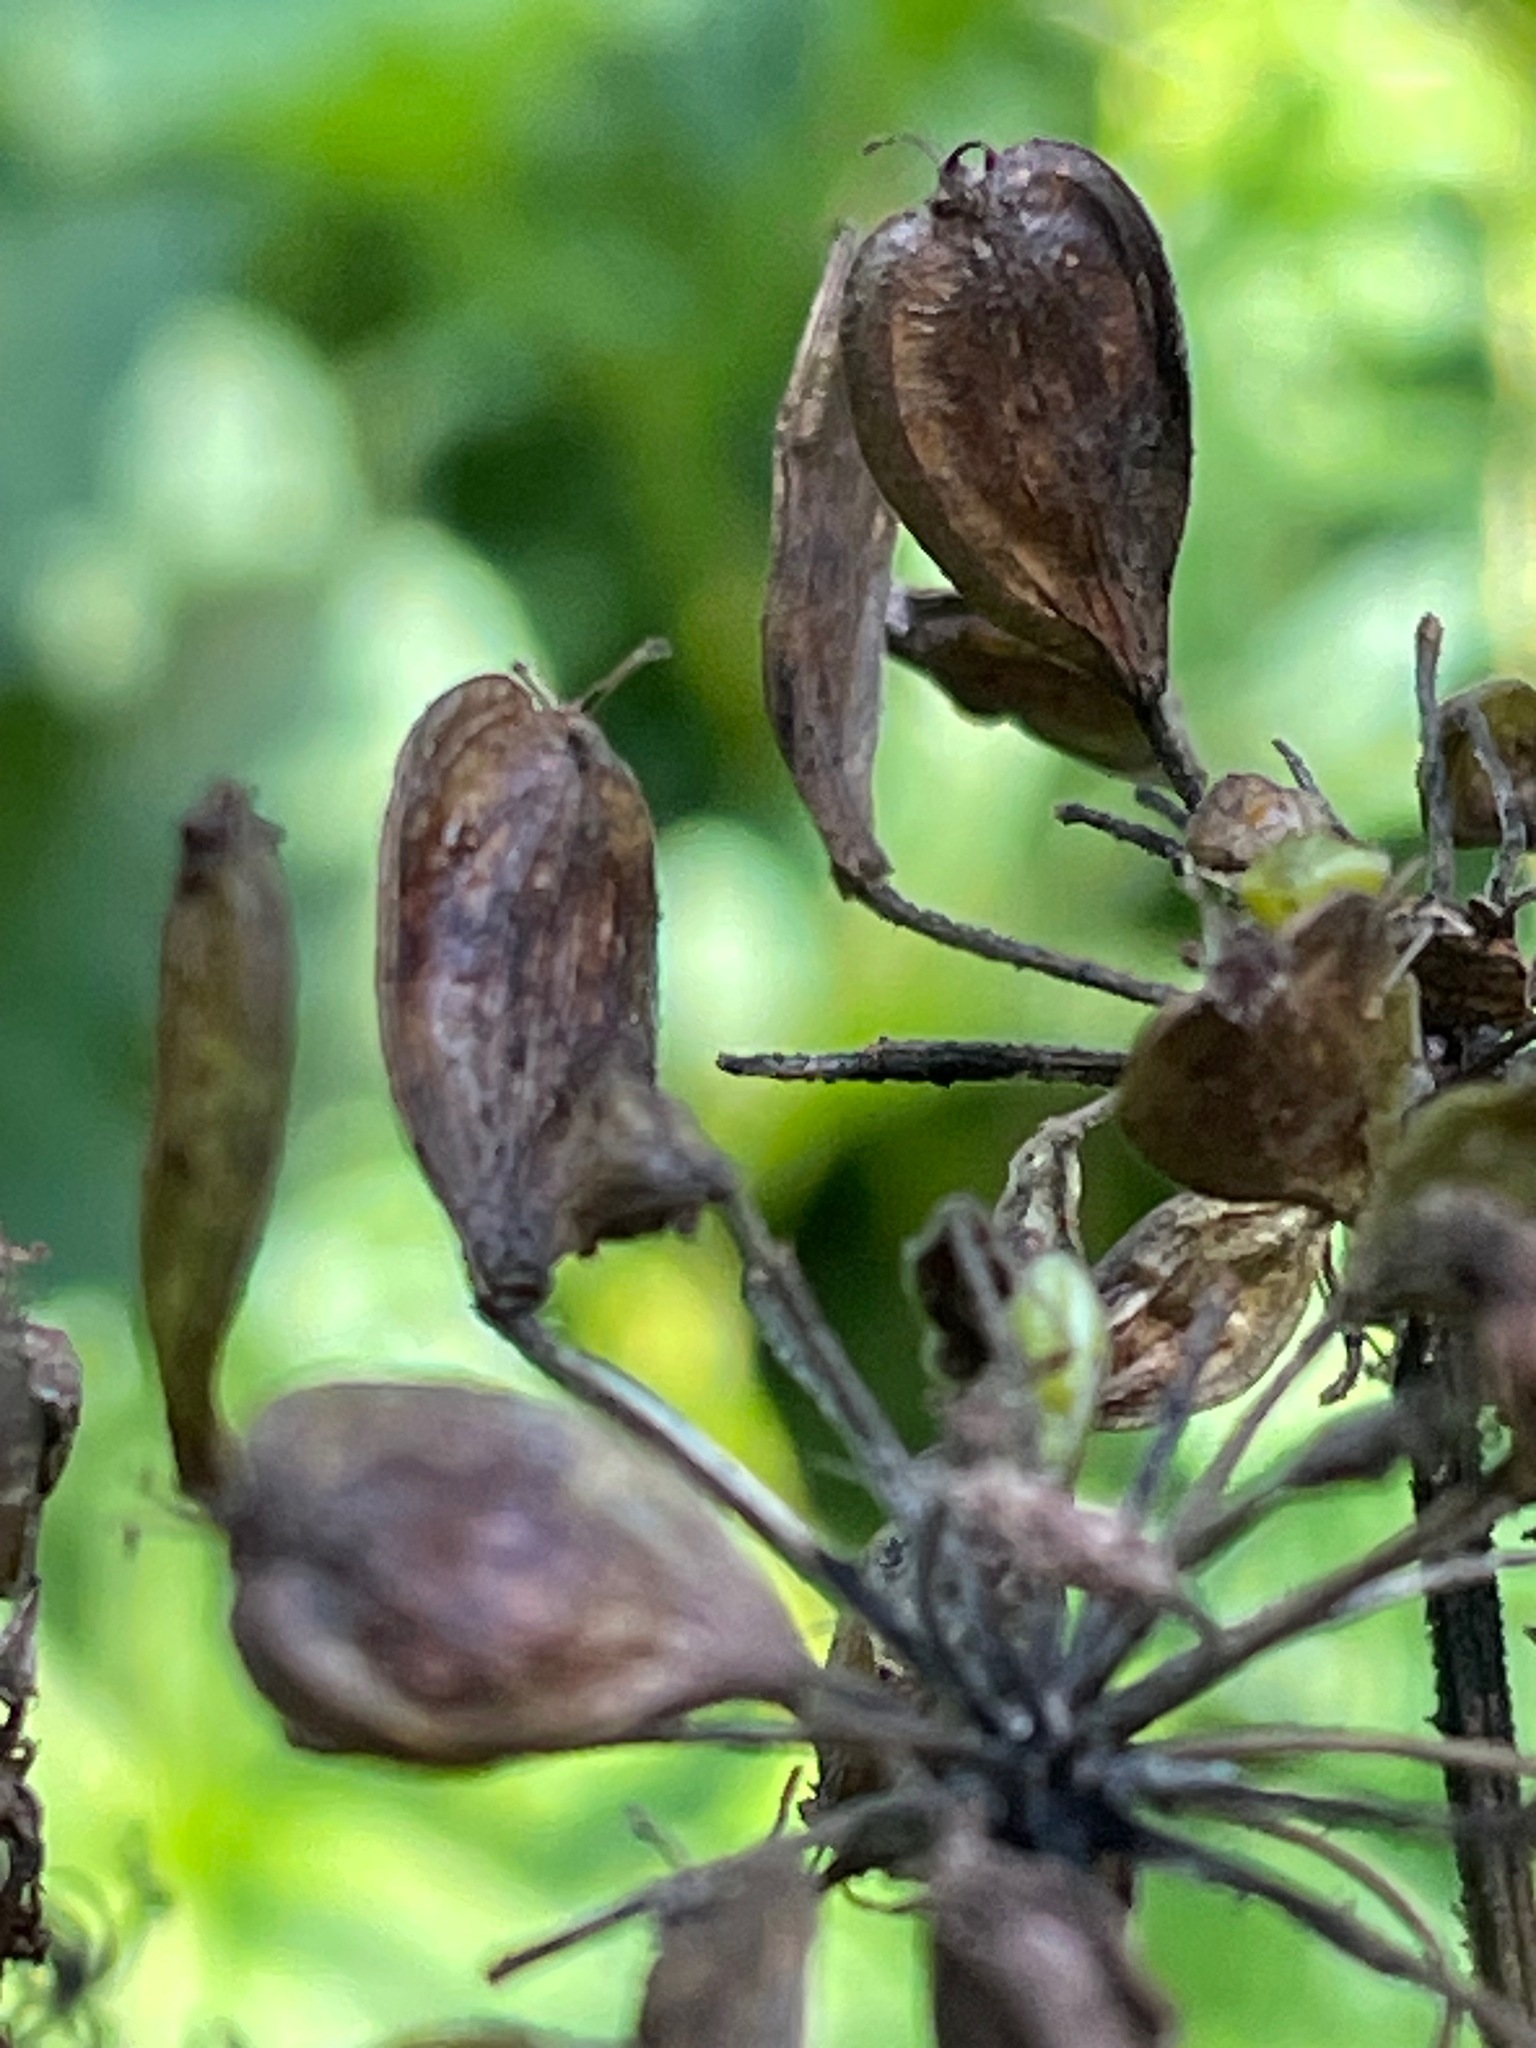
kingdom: Plantae
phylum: Tracheophyta
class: Magnoliopsida
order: Apiales
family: Apiaceae
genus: Heracleum
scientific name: Heracleum maximum
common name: American cow parsnip
